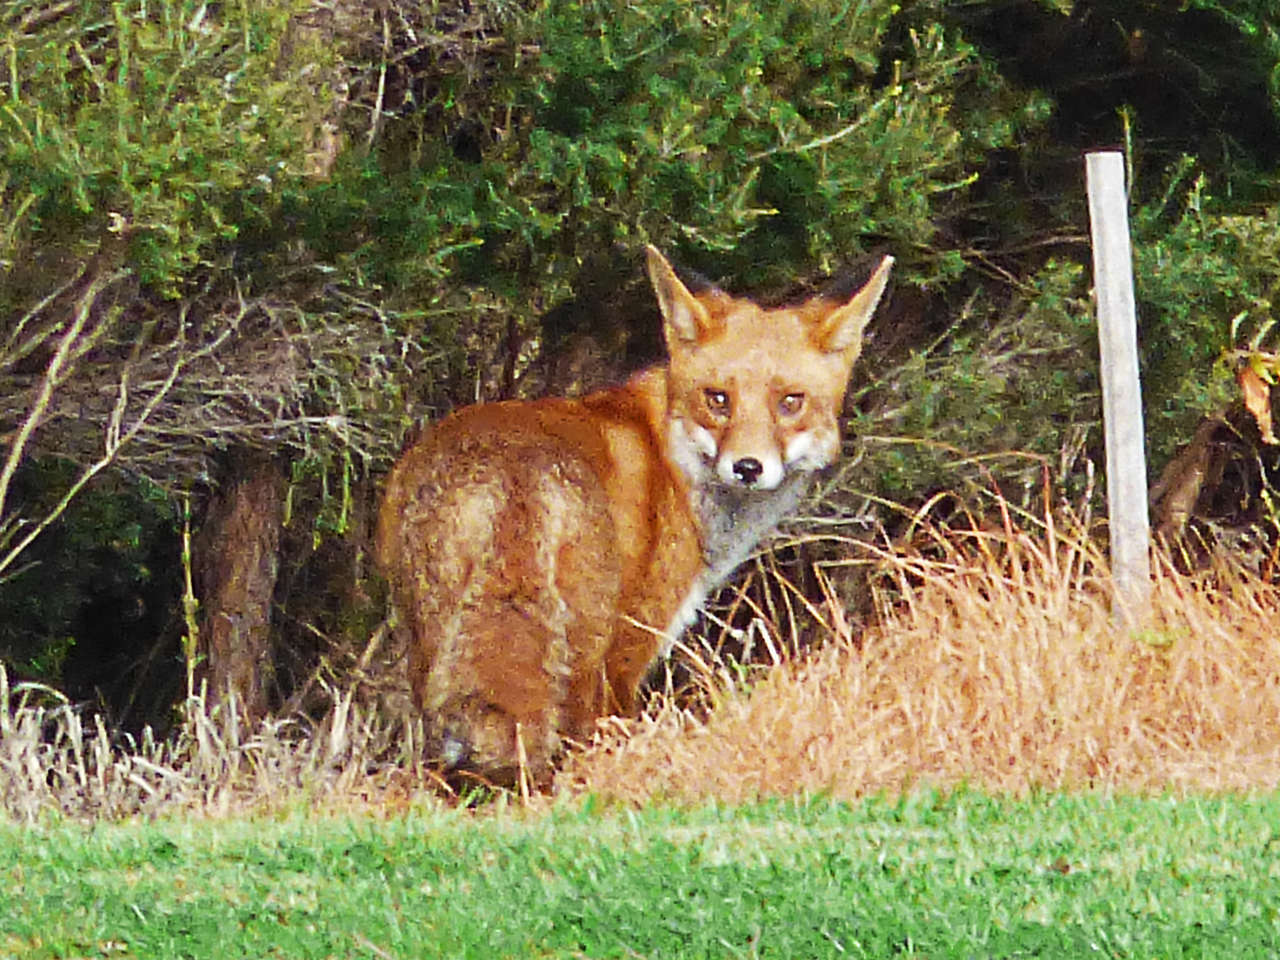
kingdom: Animalia
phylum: Chordata
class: Mammalia
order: Carnivora
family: Canidae
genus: Vulpes
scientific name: Vulpes vulpes
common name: Red fox
